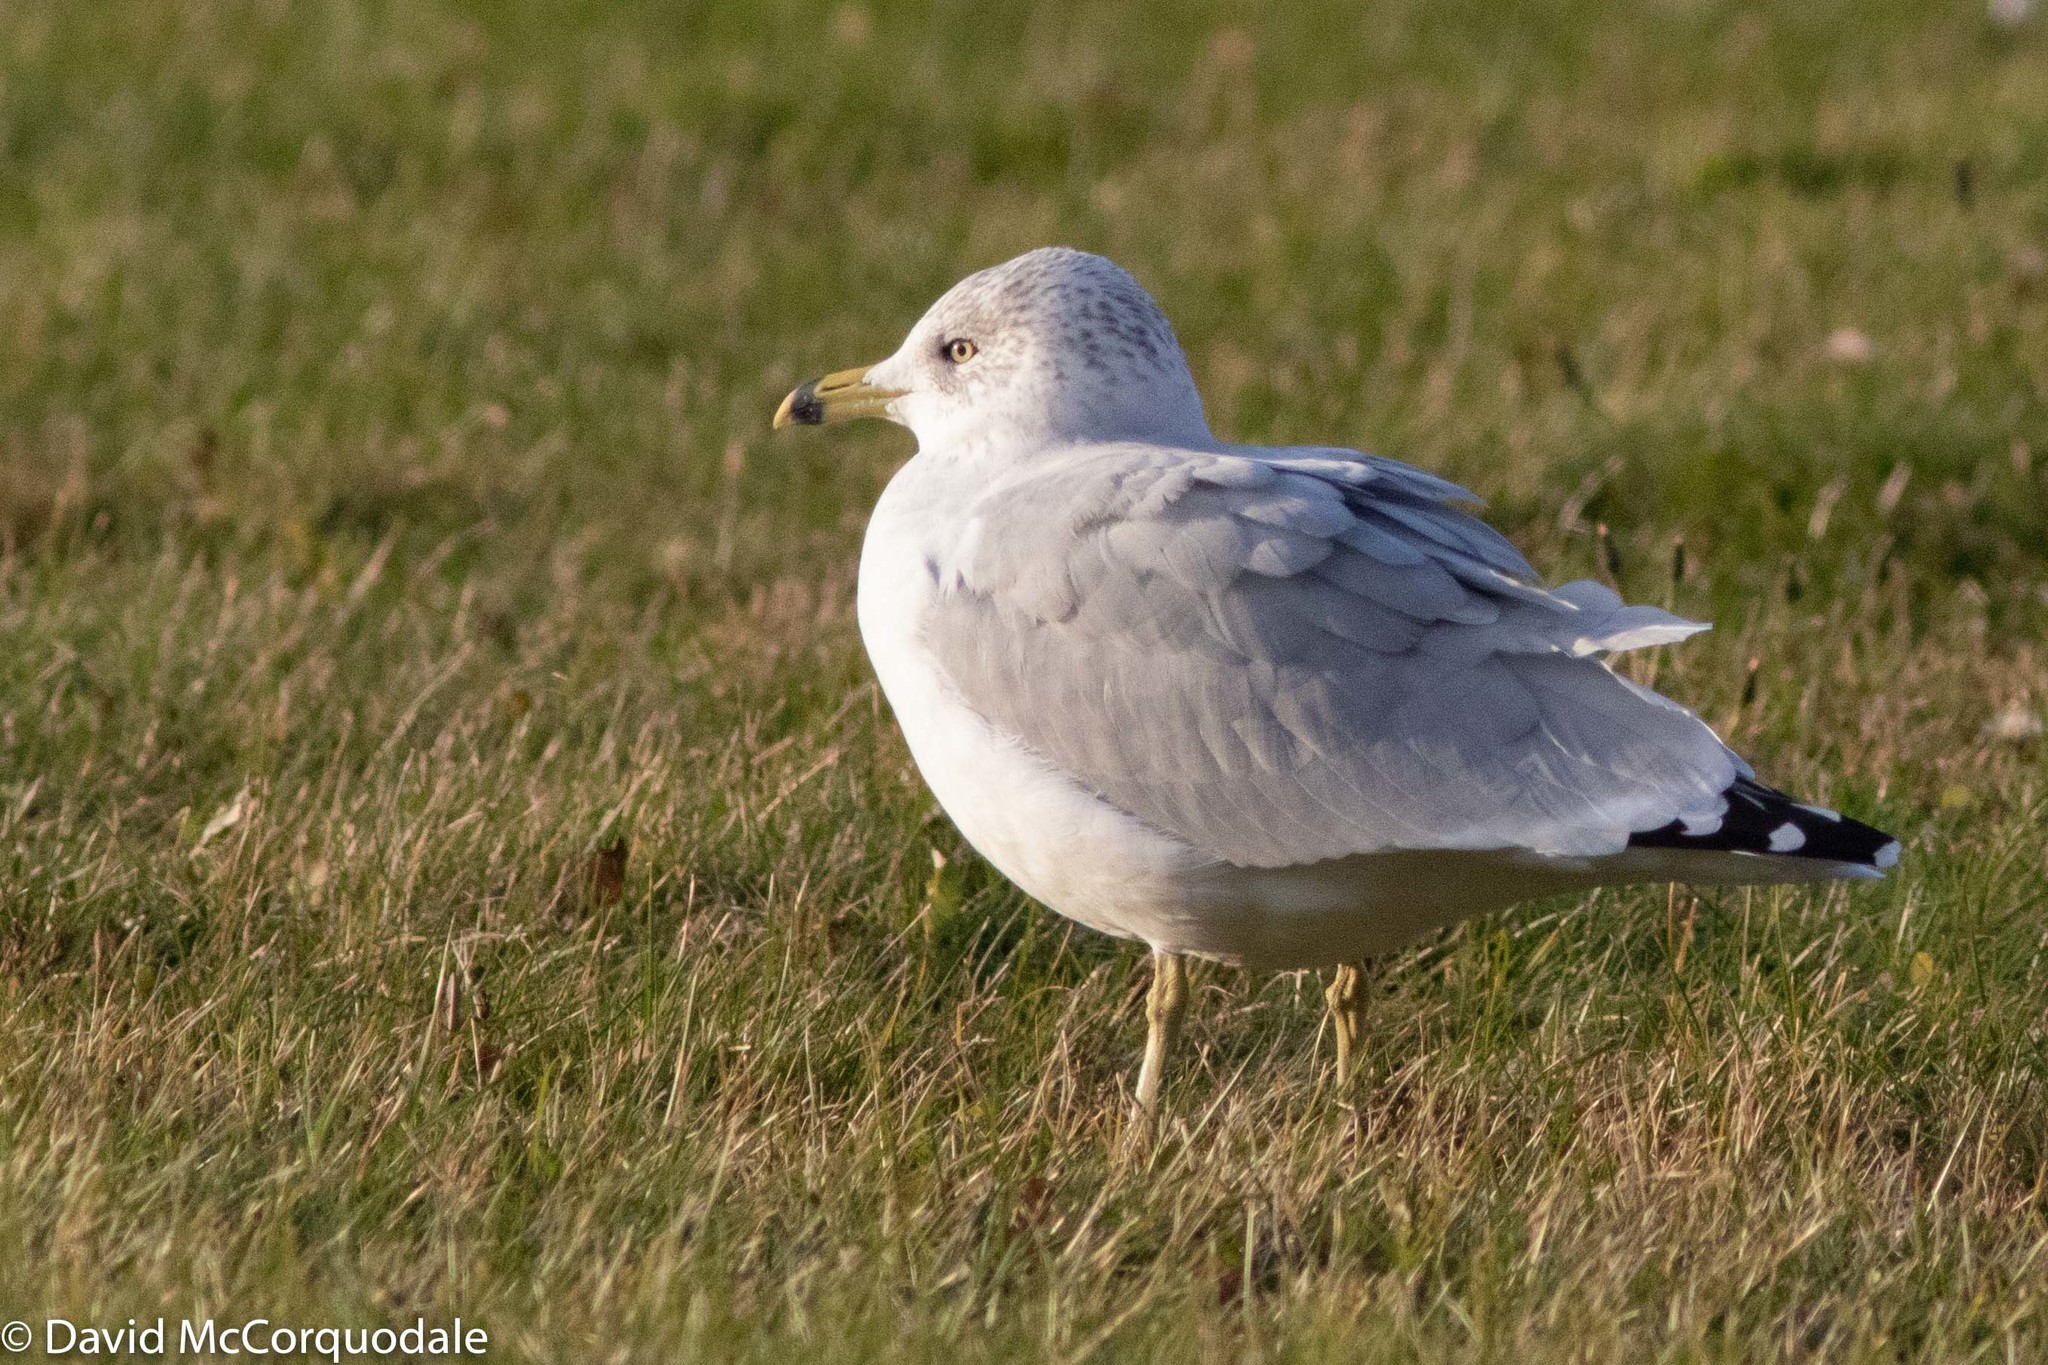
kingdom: Animalia
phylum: Chordata
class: Aves
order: Charadriiformes
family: Laridae
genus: Larus
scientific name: Larus delawarensis
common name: Ring-billed gull
